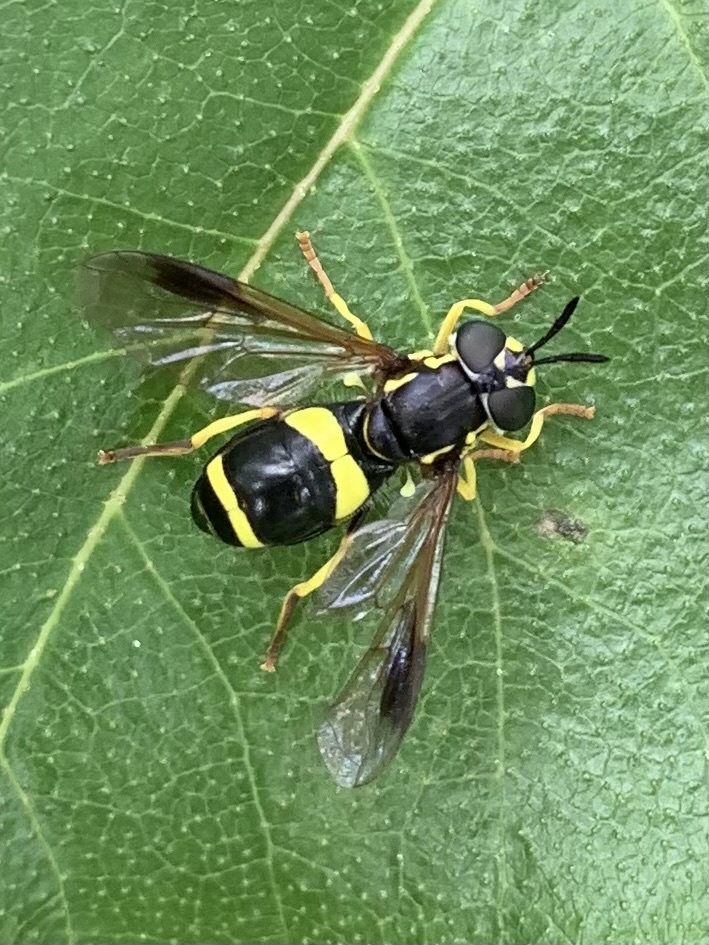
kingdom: Animalia
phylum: Arthropoda
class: Insecta
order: Diptera
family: Syrphidae
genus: Chrysotoxum
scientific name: Chrysotoxum bicincta
